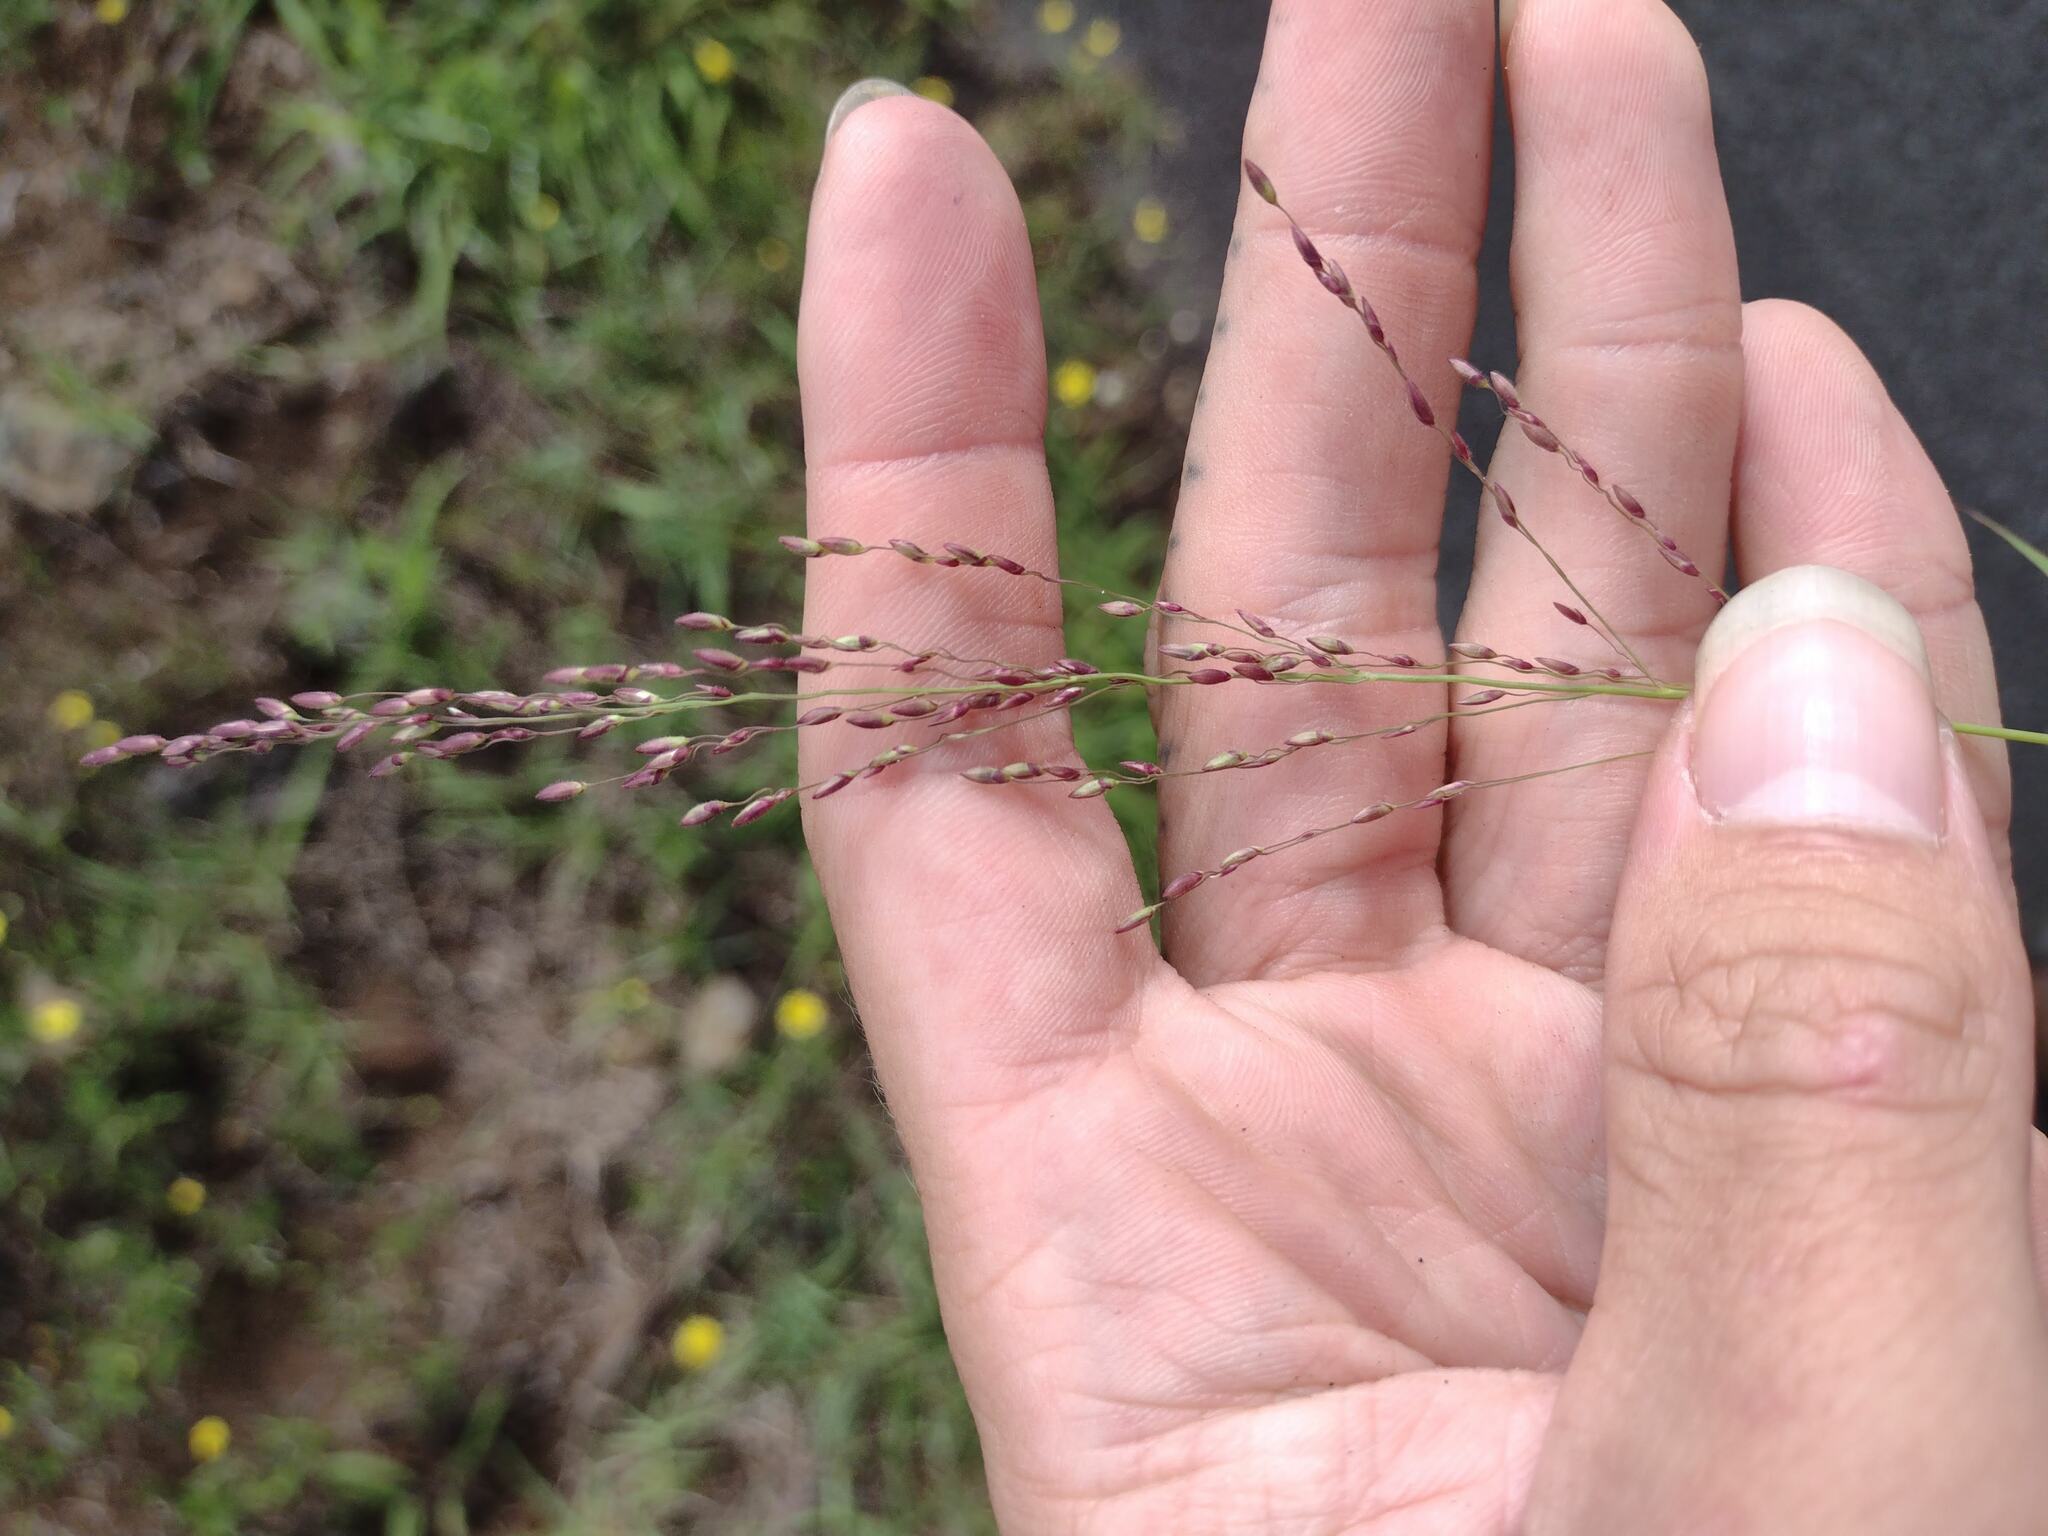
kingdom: Plantae
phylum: Tracheophyta
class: Liliopsida
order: Poales
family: Poaceae
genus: Megathyrsus
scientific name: Megathyrsus maximus
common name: Guineagrass
